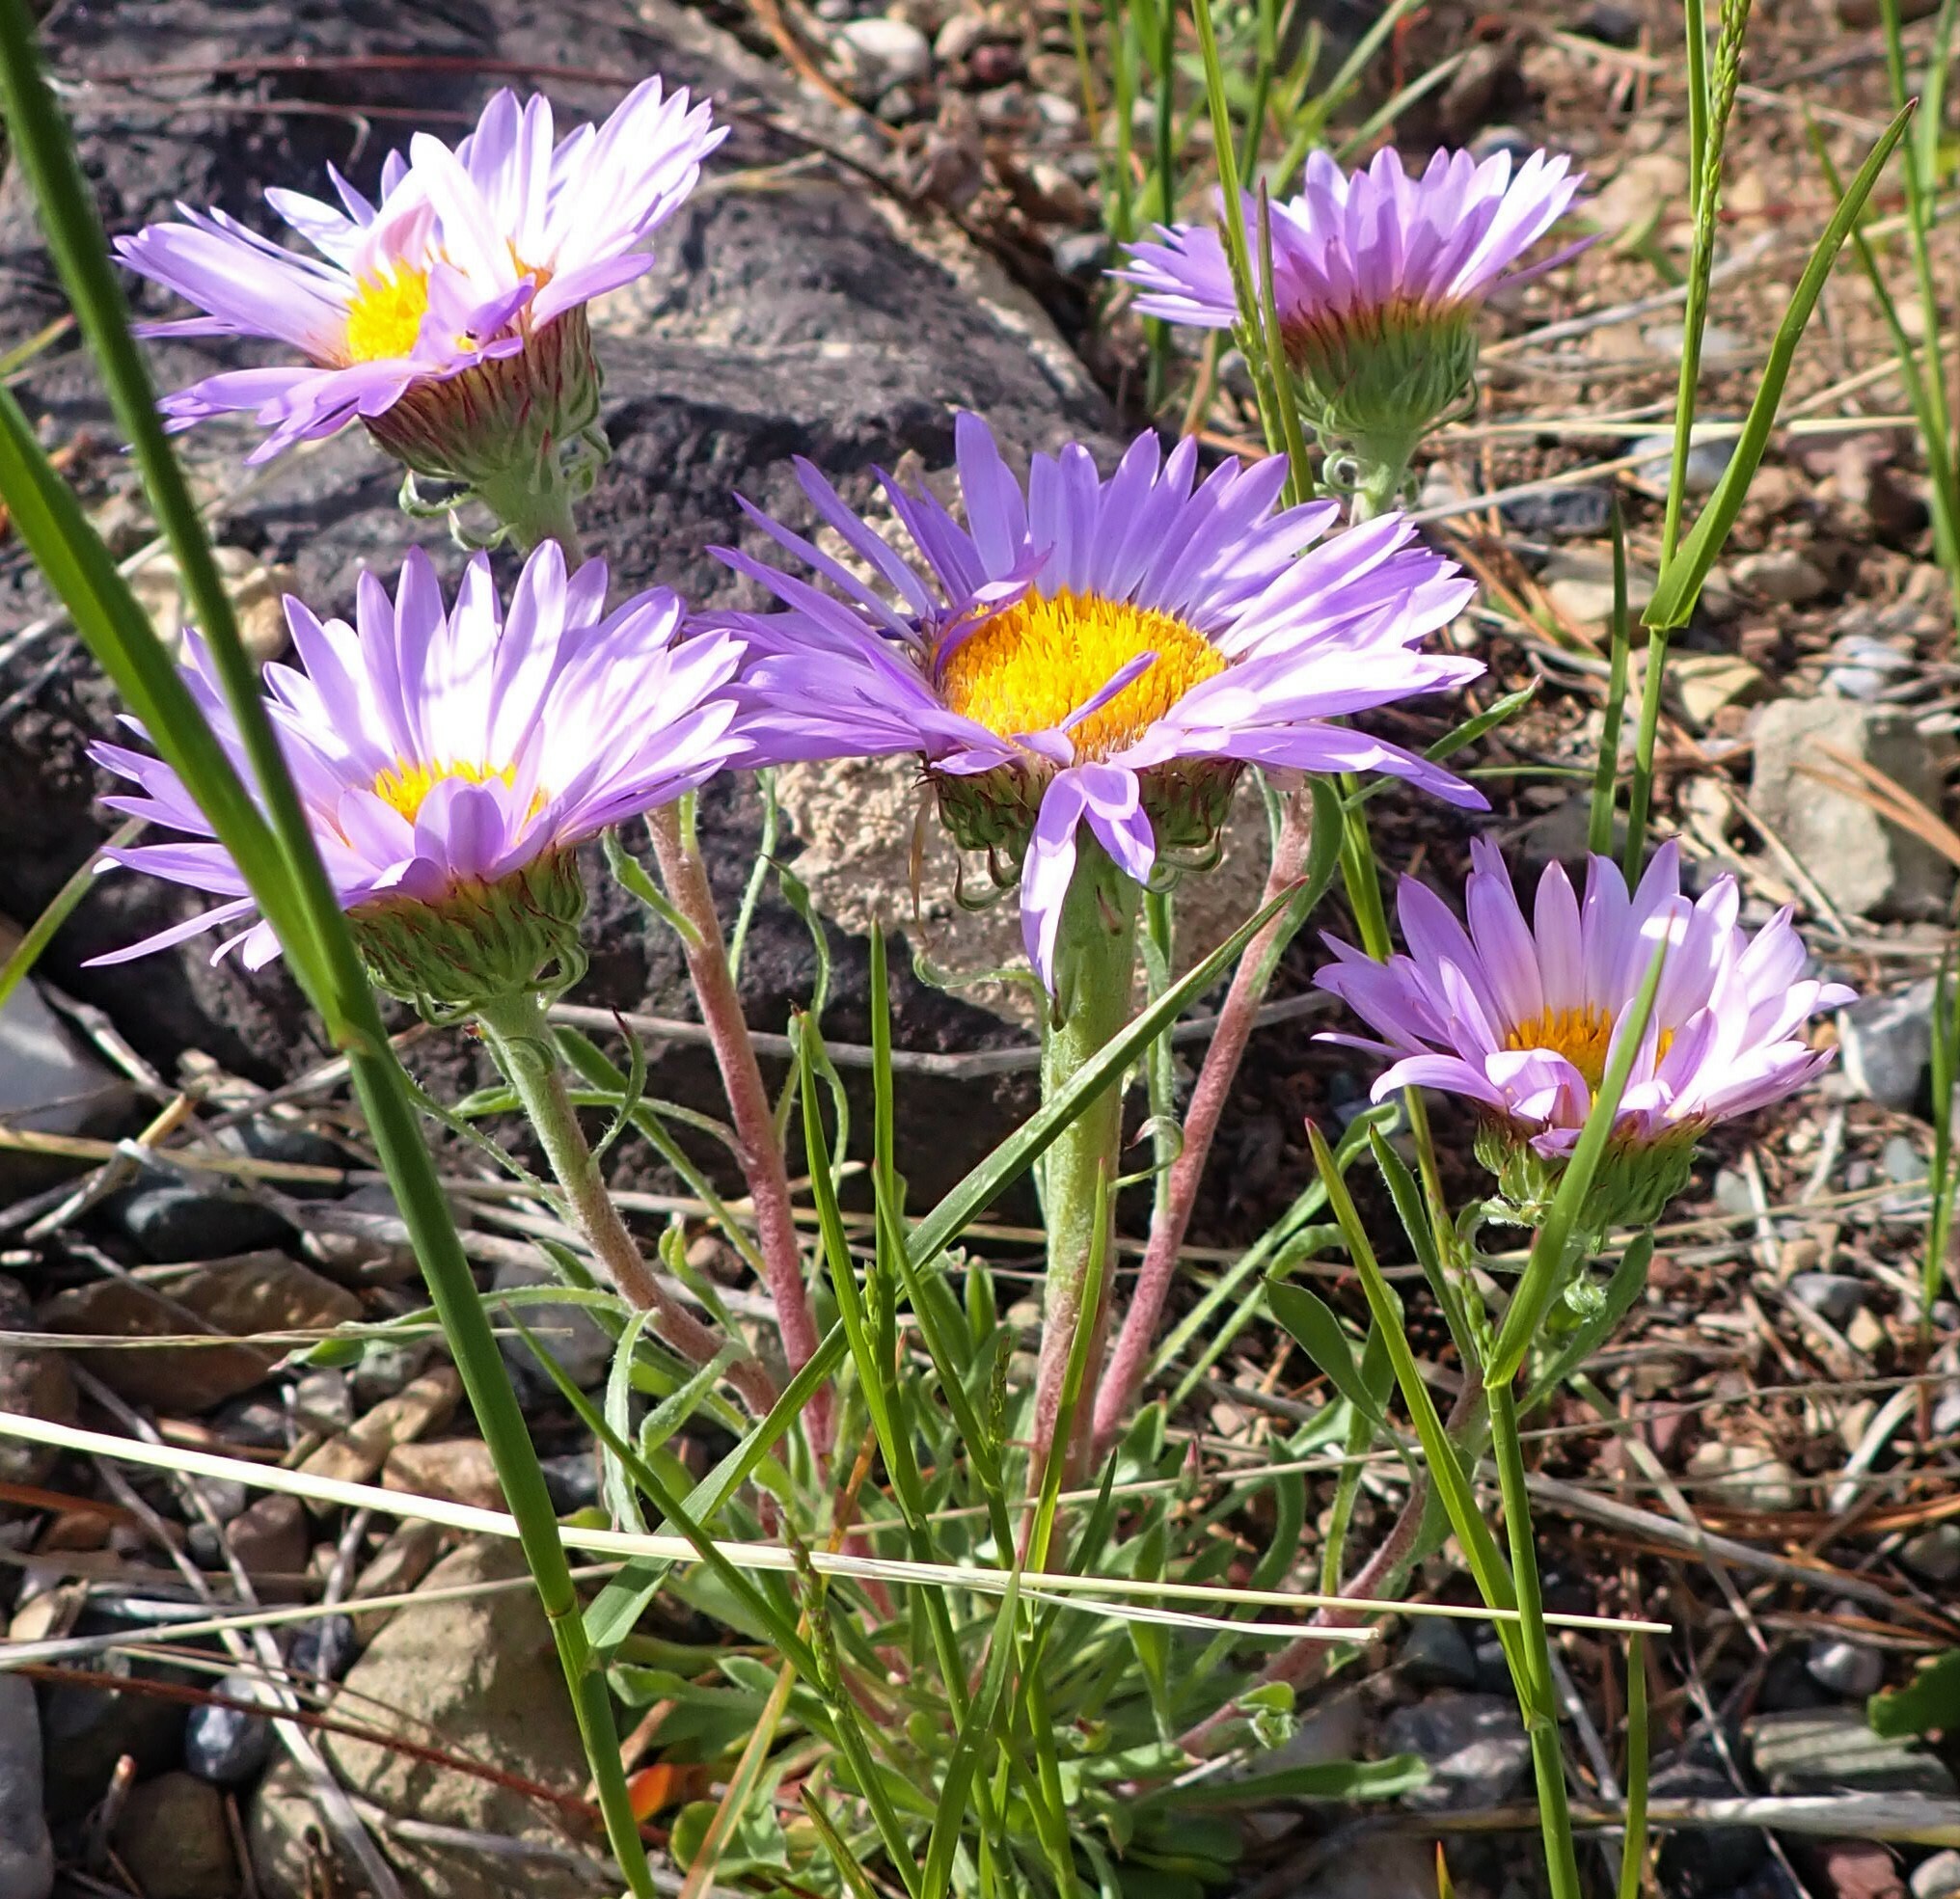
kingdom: Plantae
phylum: Tracheophyta
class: Magnoliopsida
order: Asterales
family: Asteraceae
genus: Townsendia
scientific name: Townsendia parryi
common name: Parry's townsend daisy
